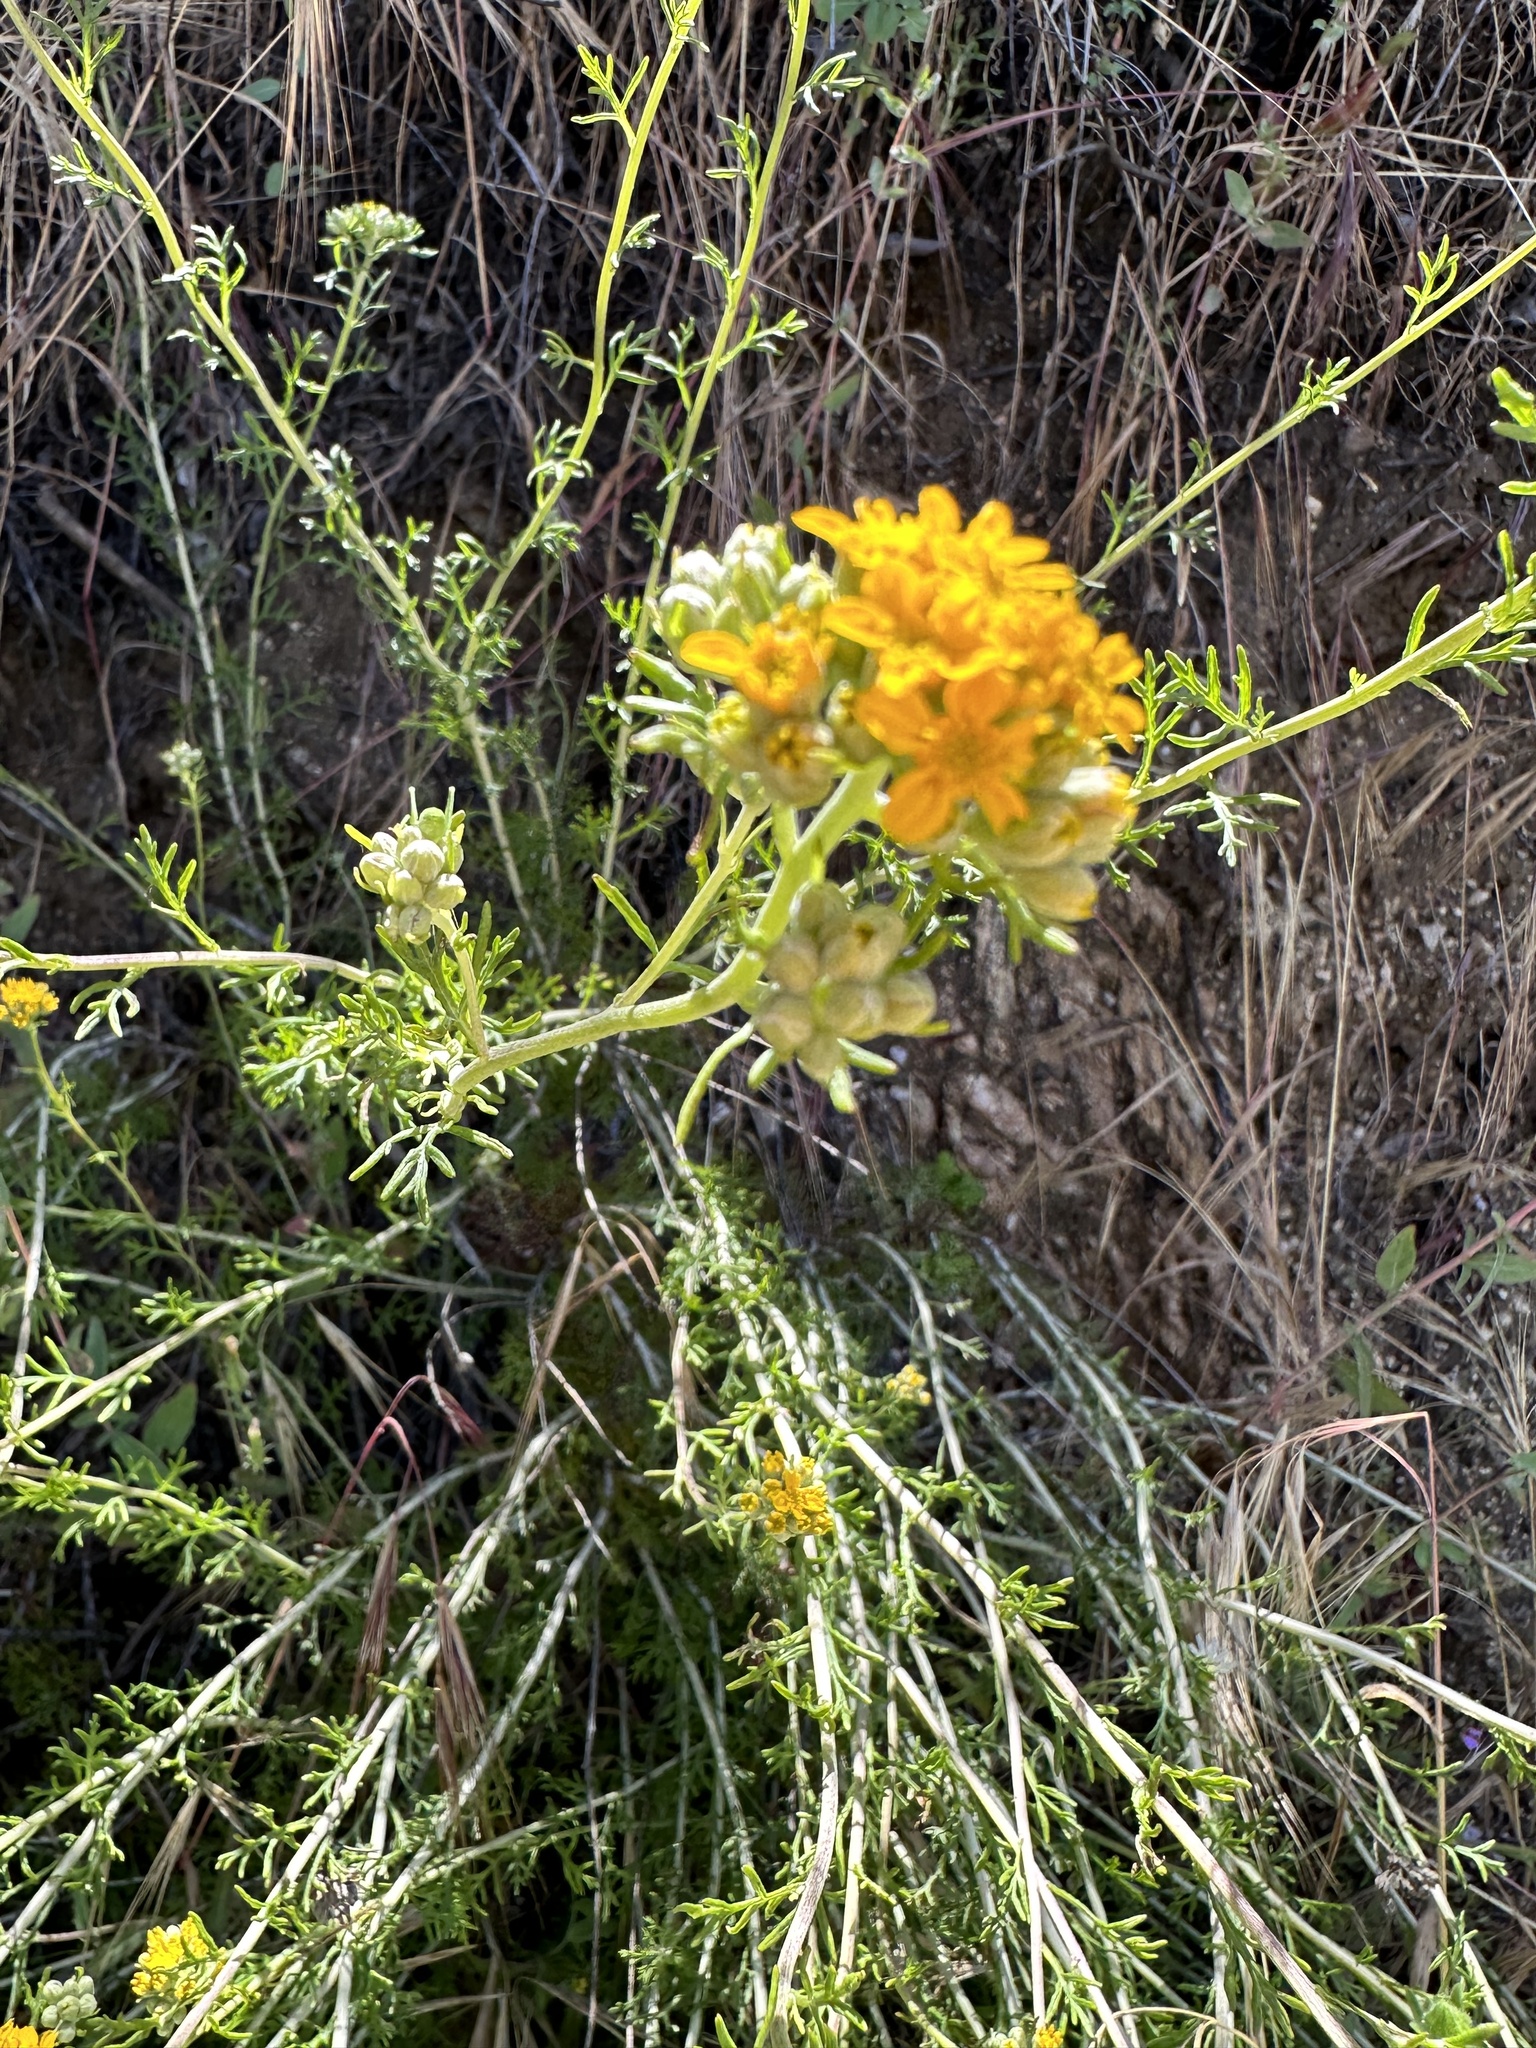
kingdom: Plantae
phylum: Tracheophyta
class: Magnoliopsida
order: Asterales
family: Asteraceae
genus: Eriophyllum
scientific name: Eriophyllum confertiflorum
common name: Golden-yarrow
